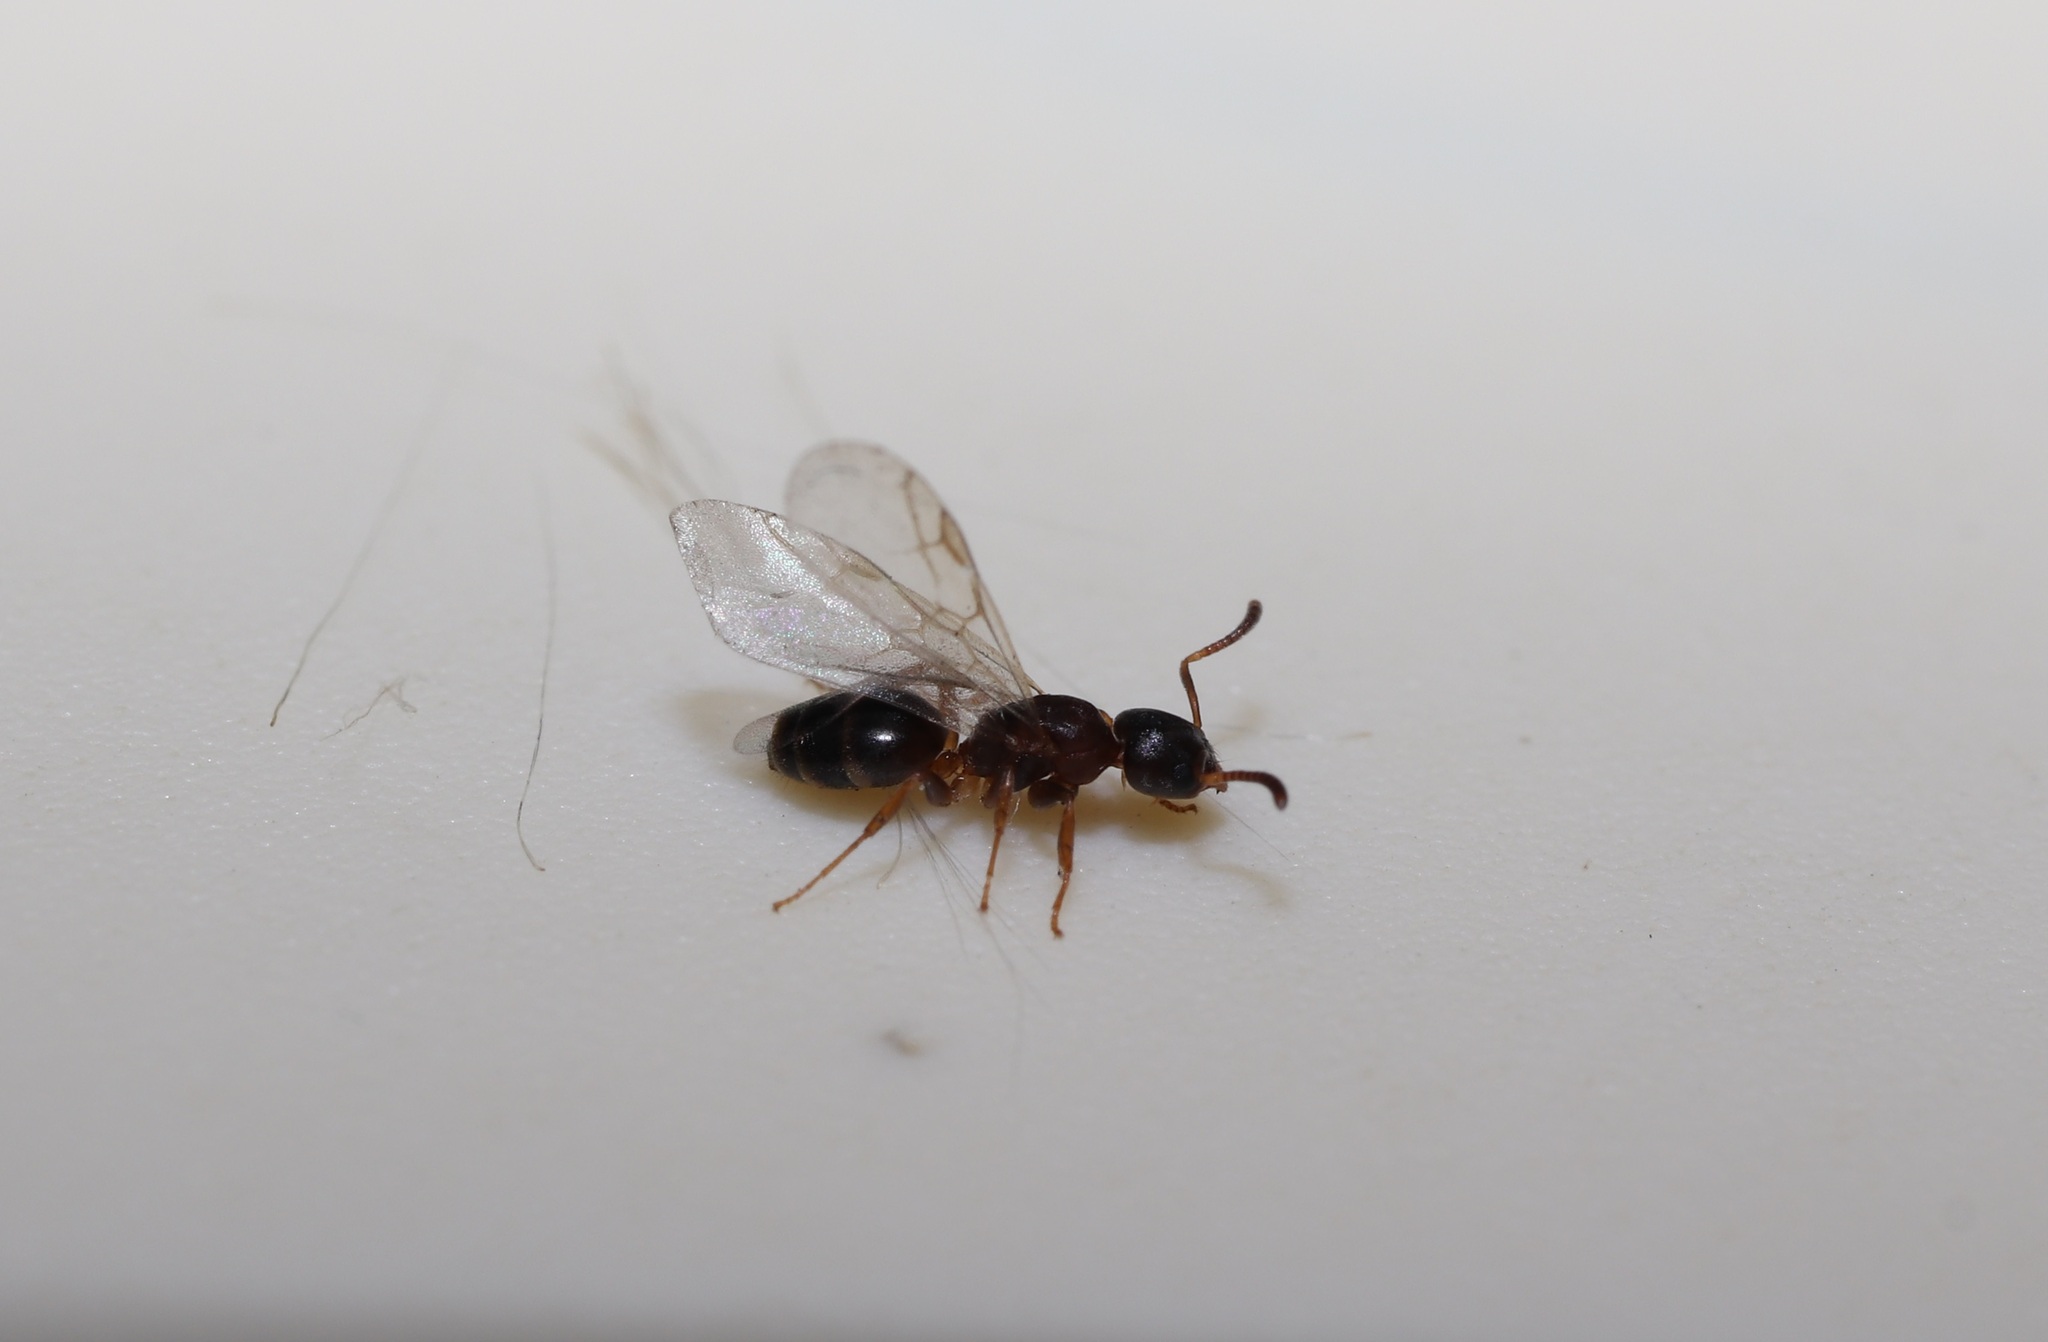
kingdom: Animalia
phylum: Arthropoda
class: Insecta
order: Hymenoptera
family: Formicidae
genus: Technomyrmex
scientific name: Technomyrmex gibbosus
